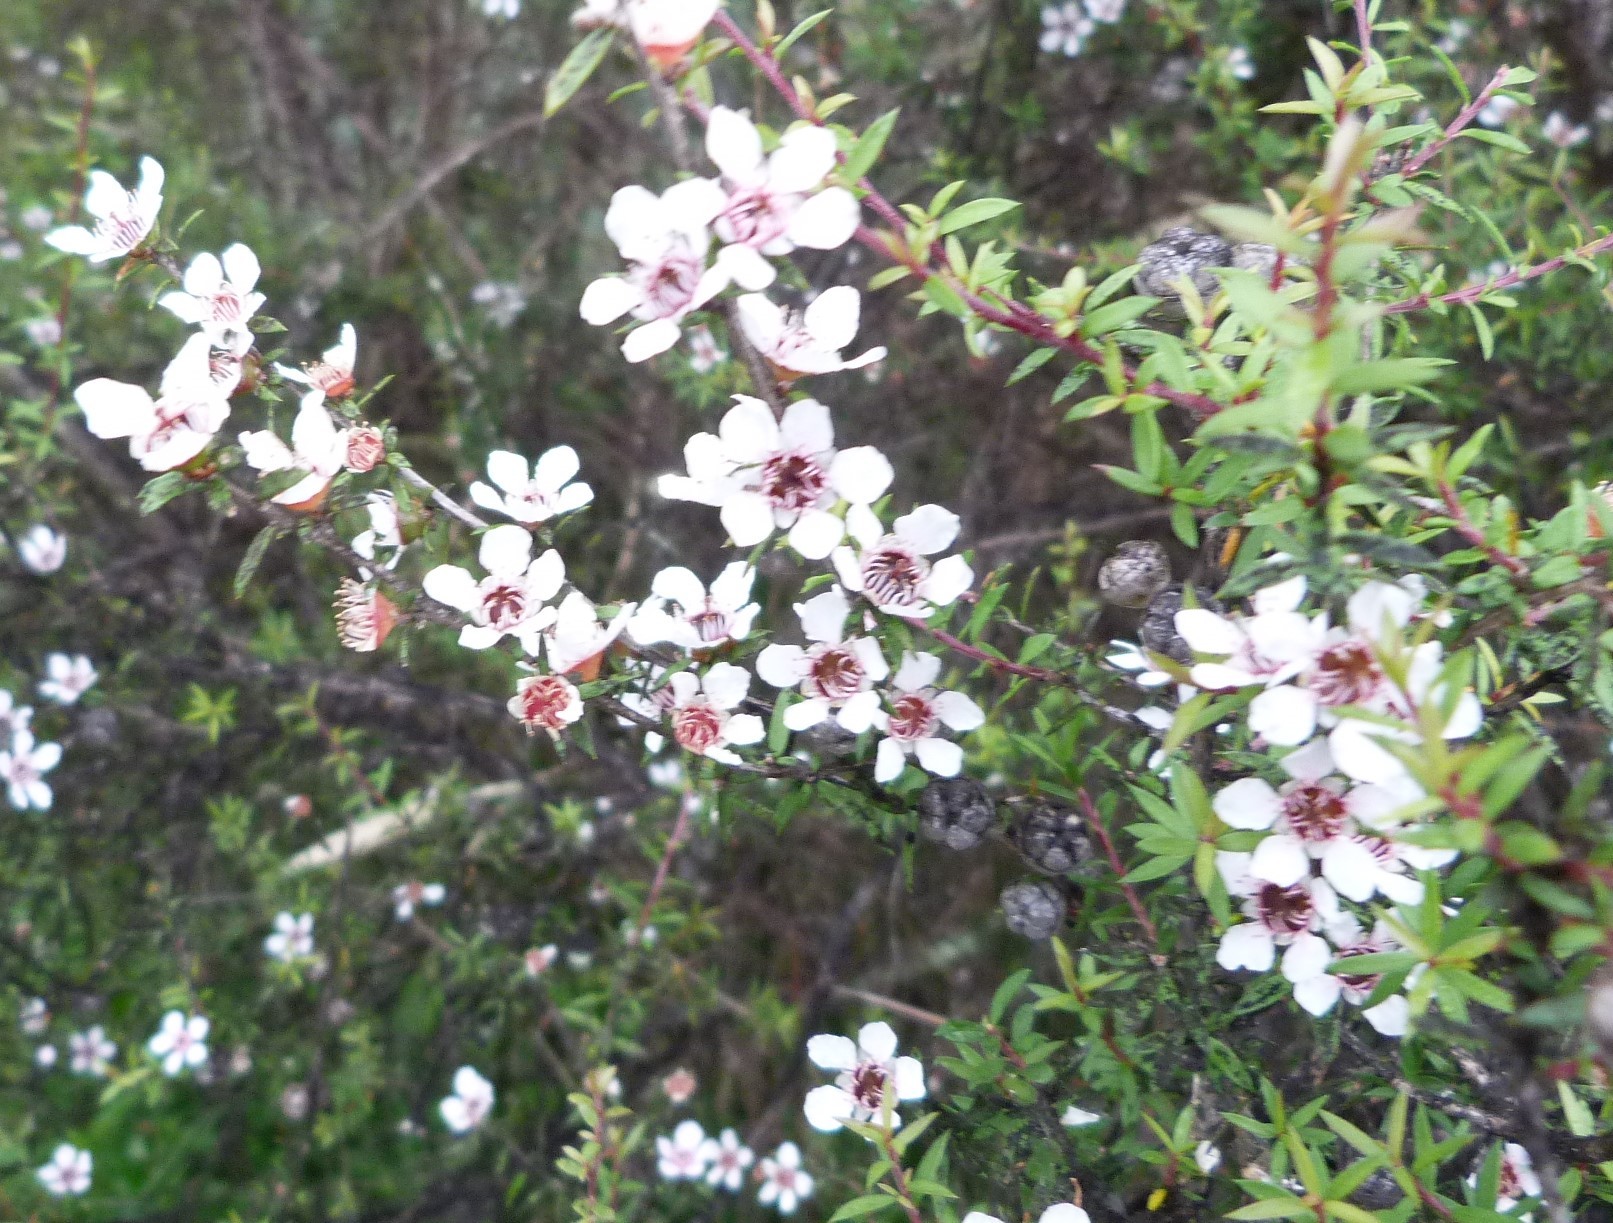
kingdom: Plantae
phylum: Tracheophyta
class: Magnoliopsida
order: Myrtales
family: Myrtaceae
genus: Leptospermum
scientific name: Leptospermum scoparium
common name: Broom tea-tree
